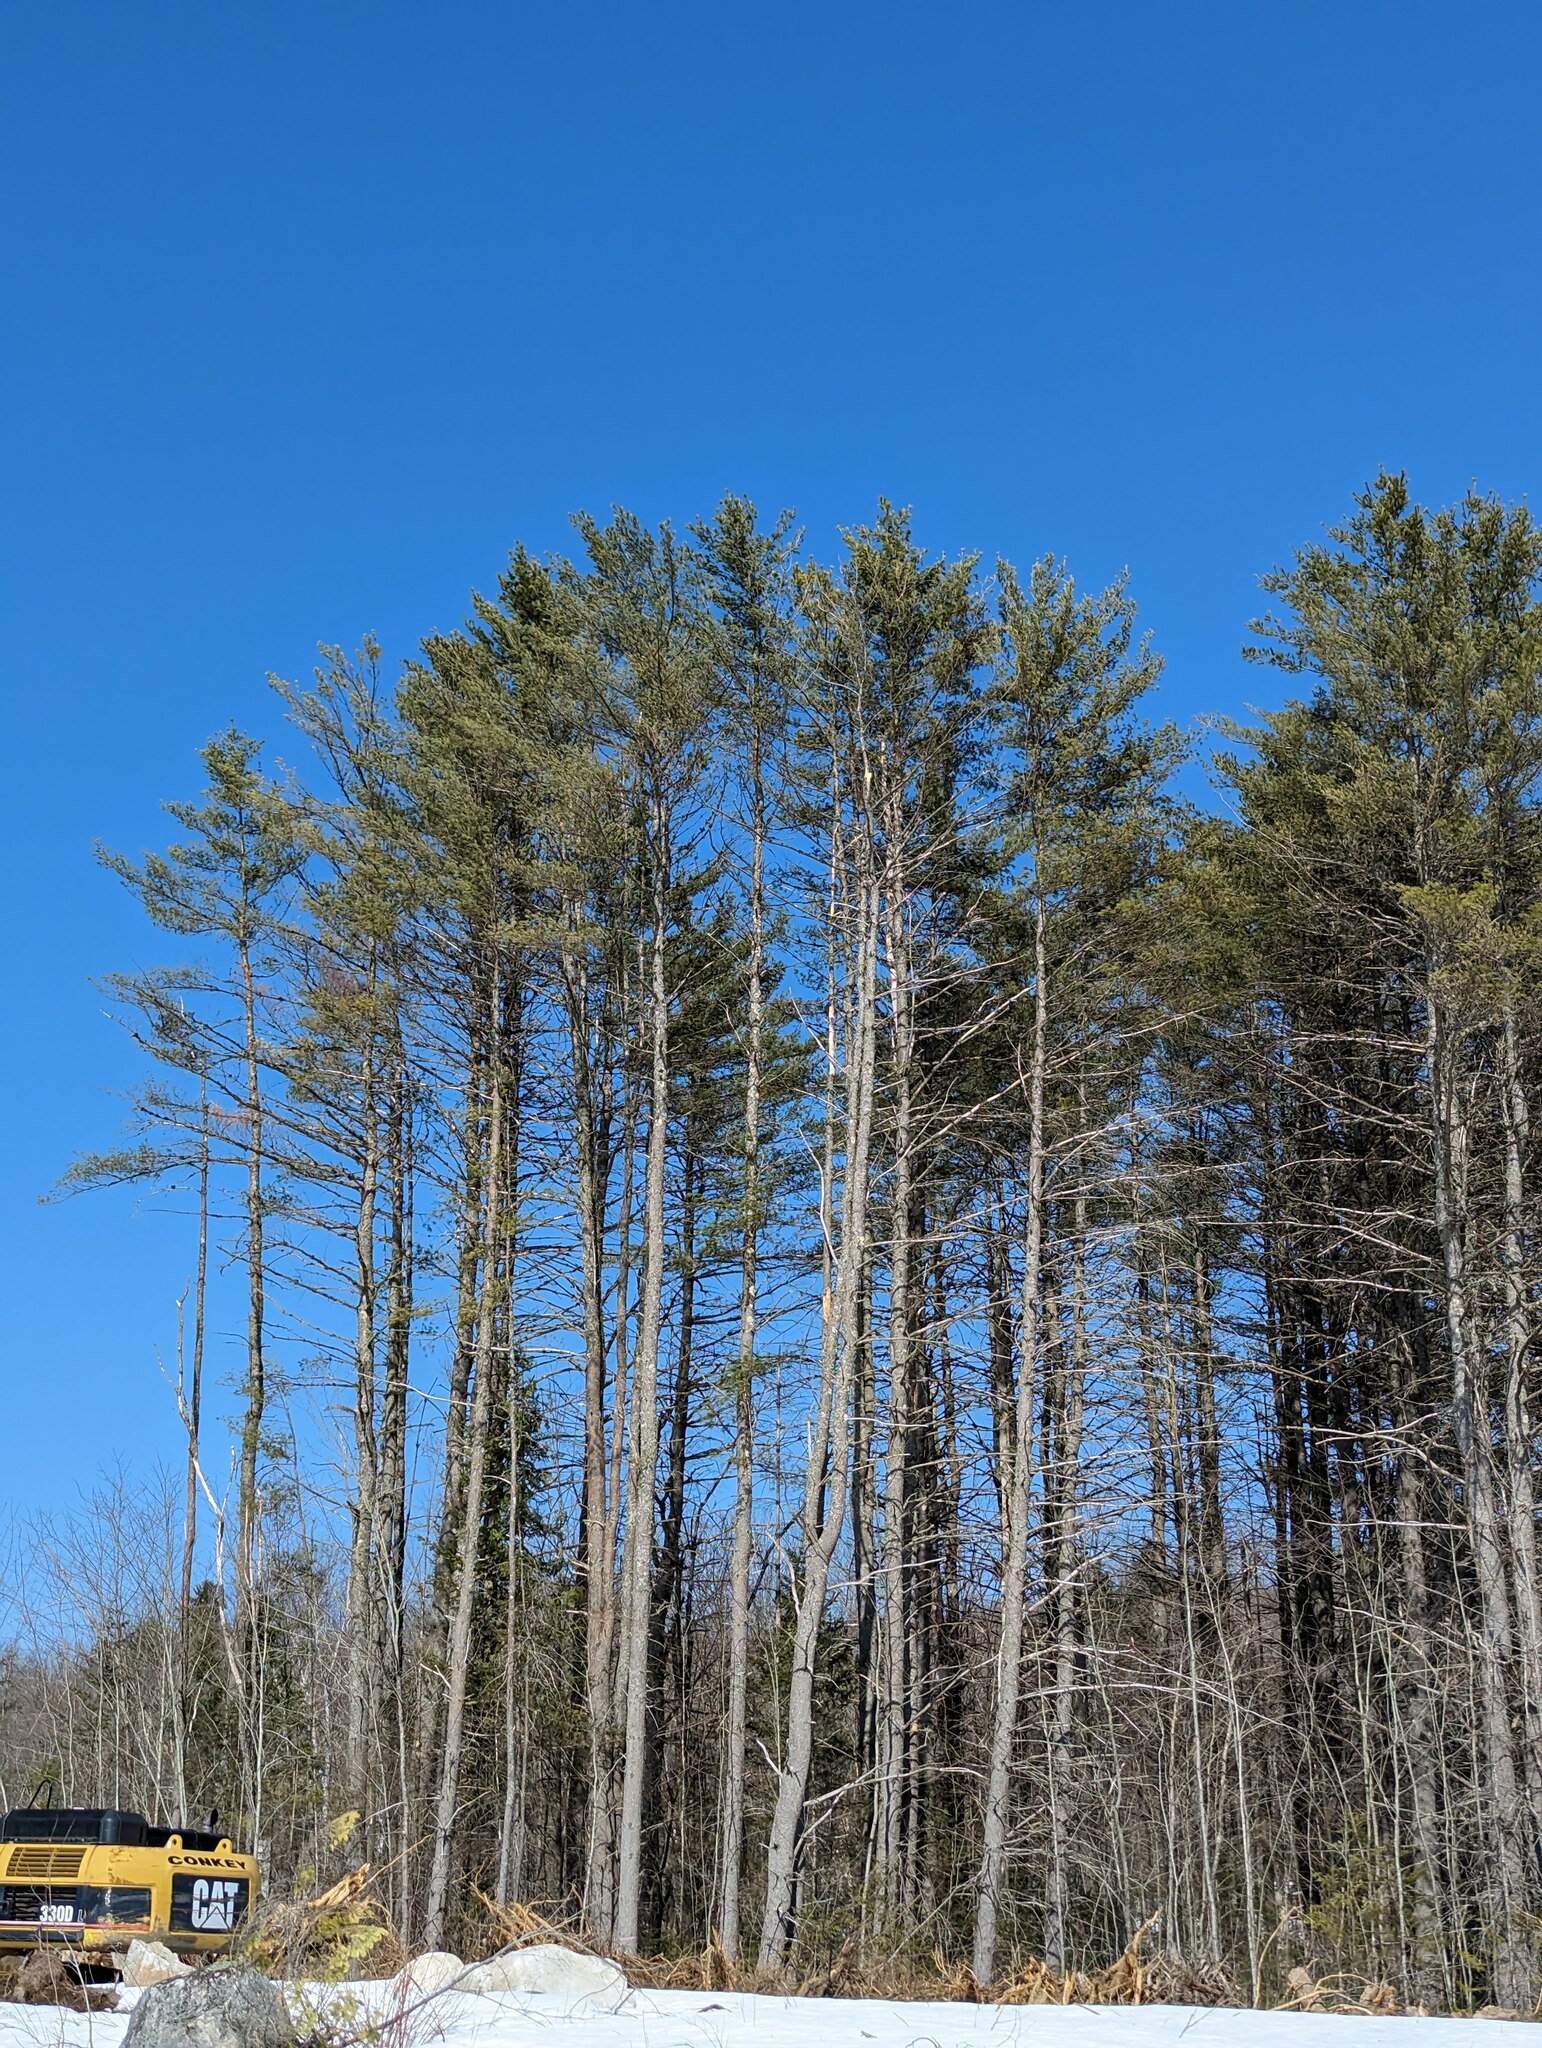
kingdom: Plantae
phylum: Tracheophyta
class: Pinopsida
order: Pinales
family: Pinaceae
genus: Pinus
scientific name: Pinus strobus
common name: Weymouth pine
